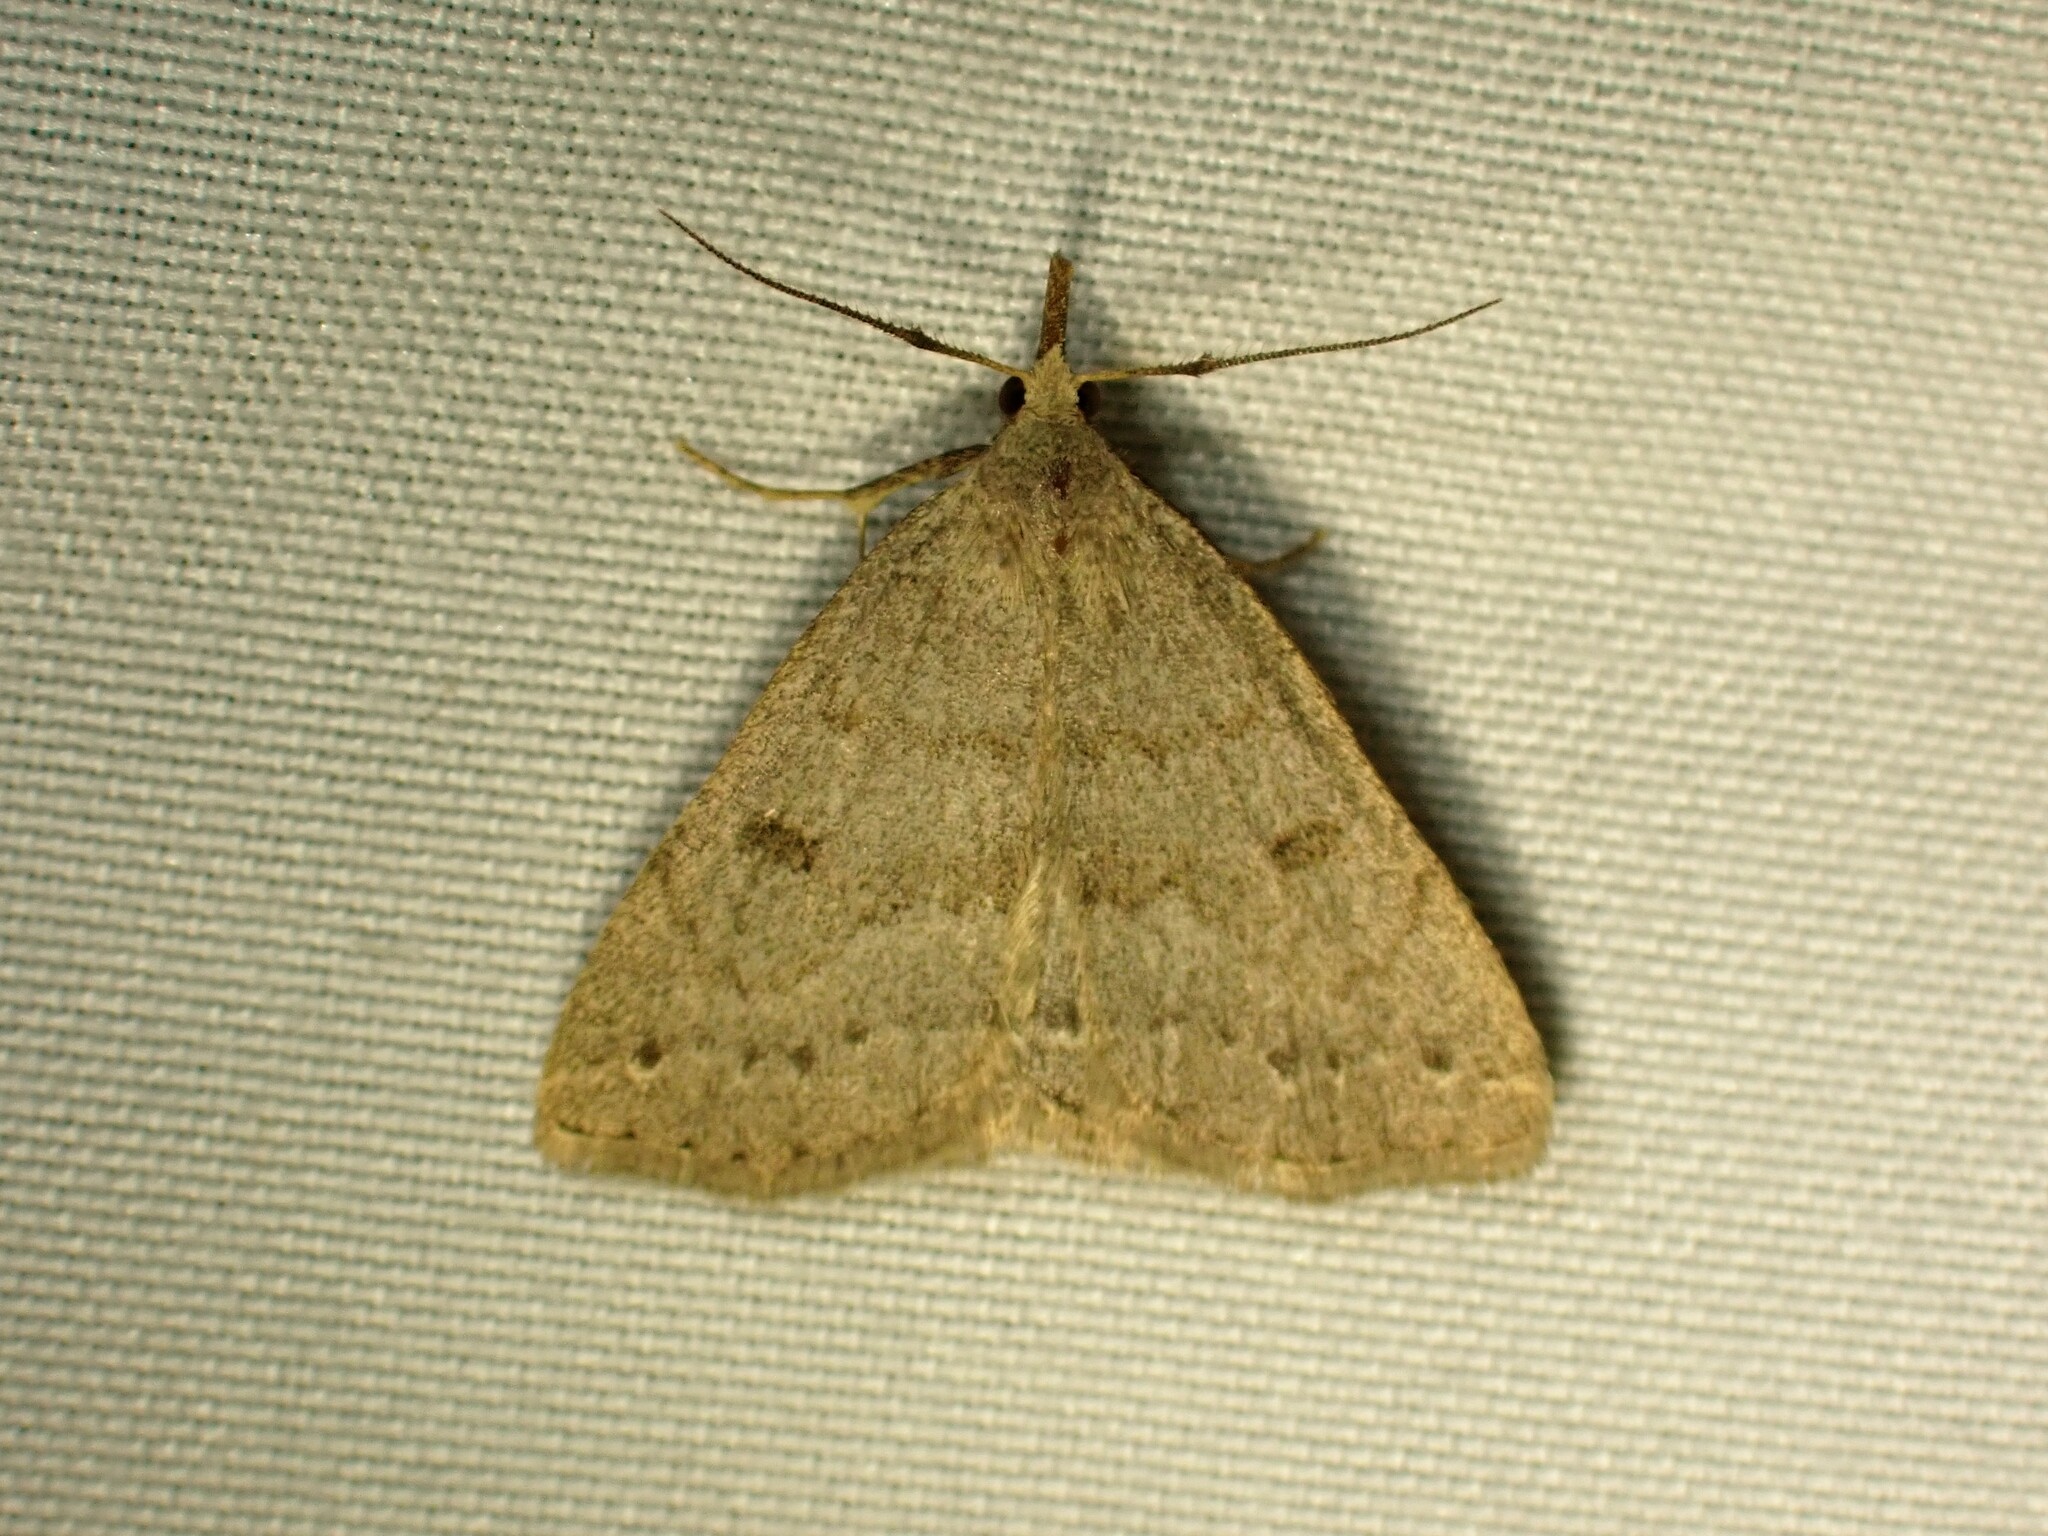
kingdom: Animalia
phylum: Arthropoda
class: Insecta
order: Lepidoptera
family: Erebidae
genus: Macrochilo
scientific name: Macrochilo morbidalis
